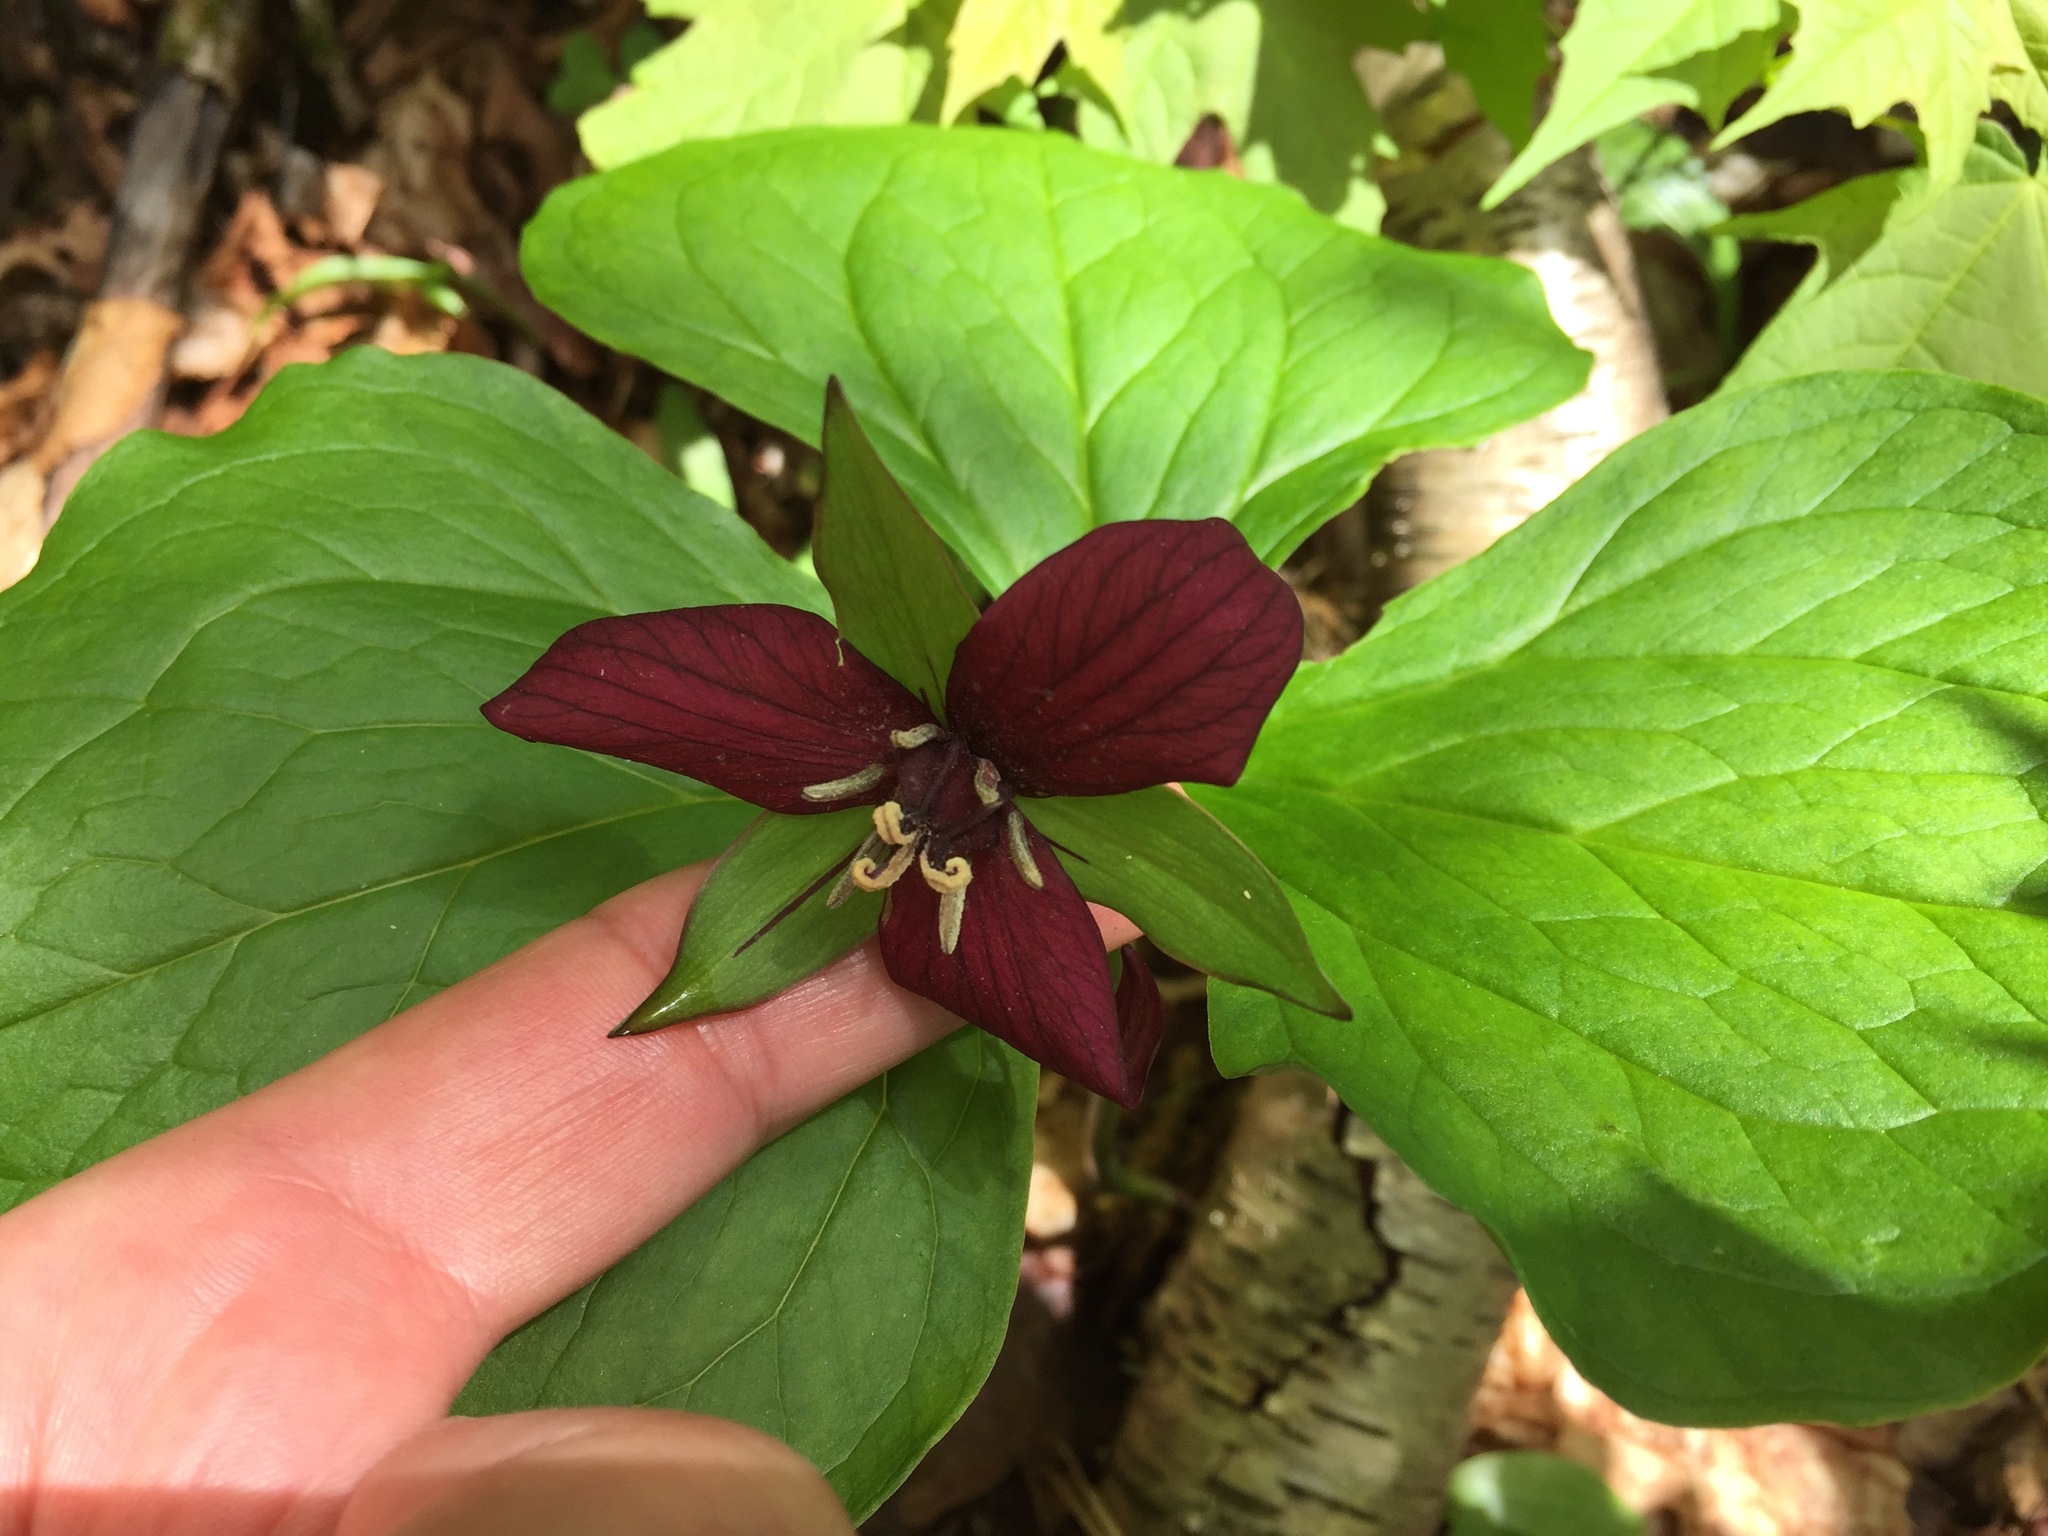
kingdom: Plantae
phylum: Tracheophyta
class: Liliopsida
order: Liliales
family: Melanthiaceae
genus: Trillium
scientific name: Trillium erectum
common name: Purple trillium
